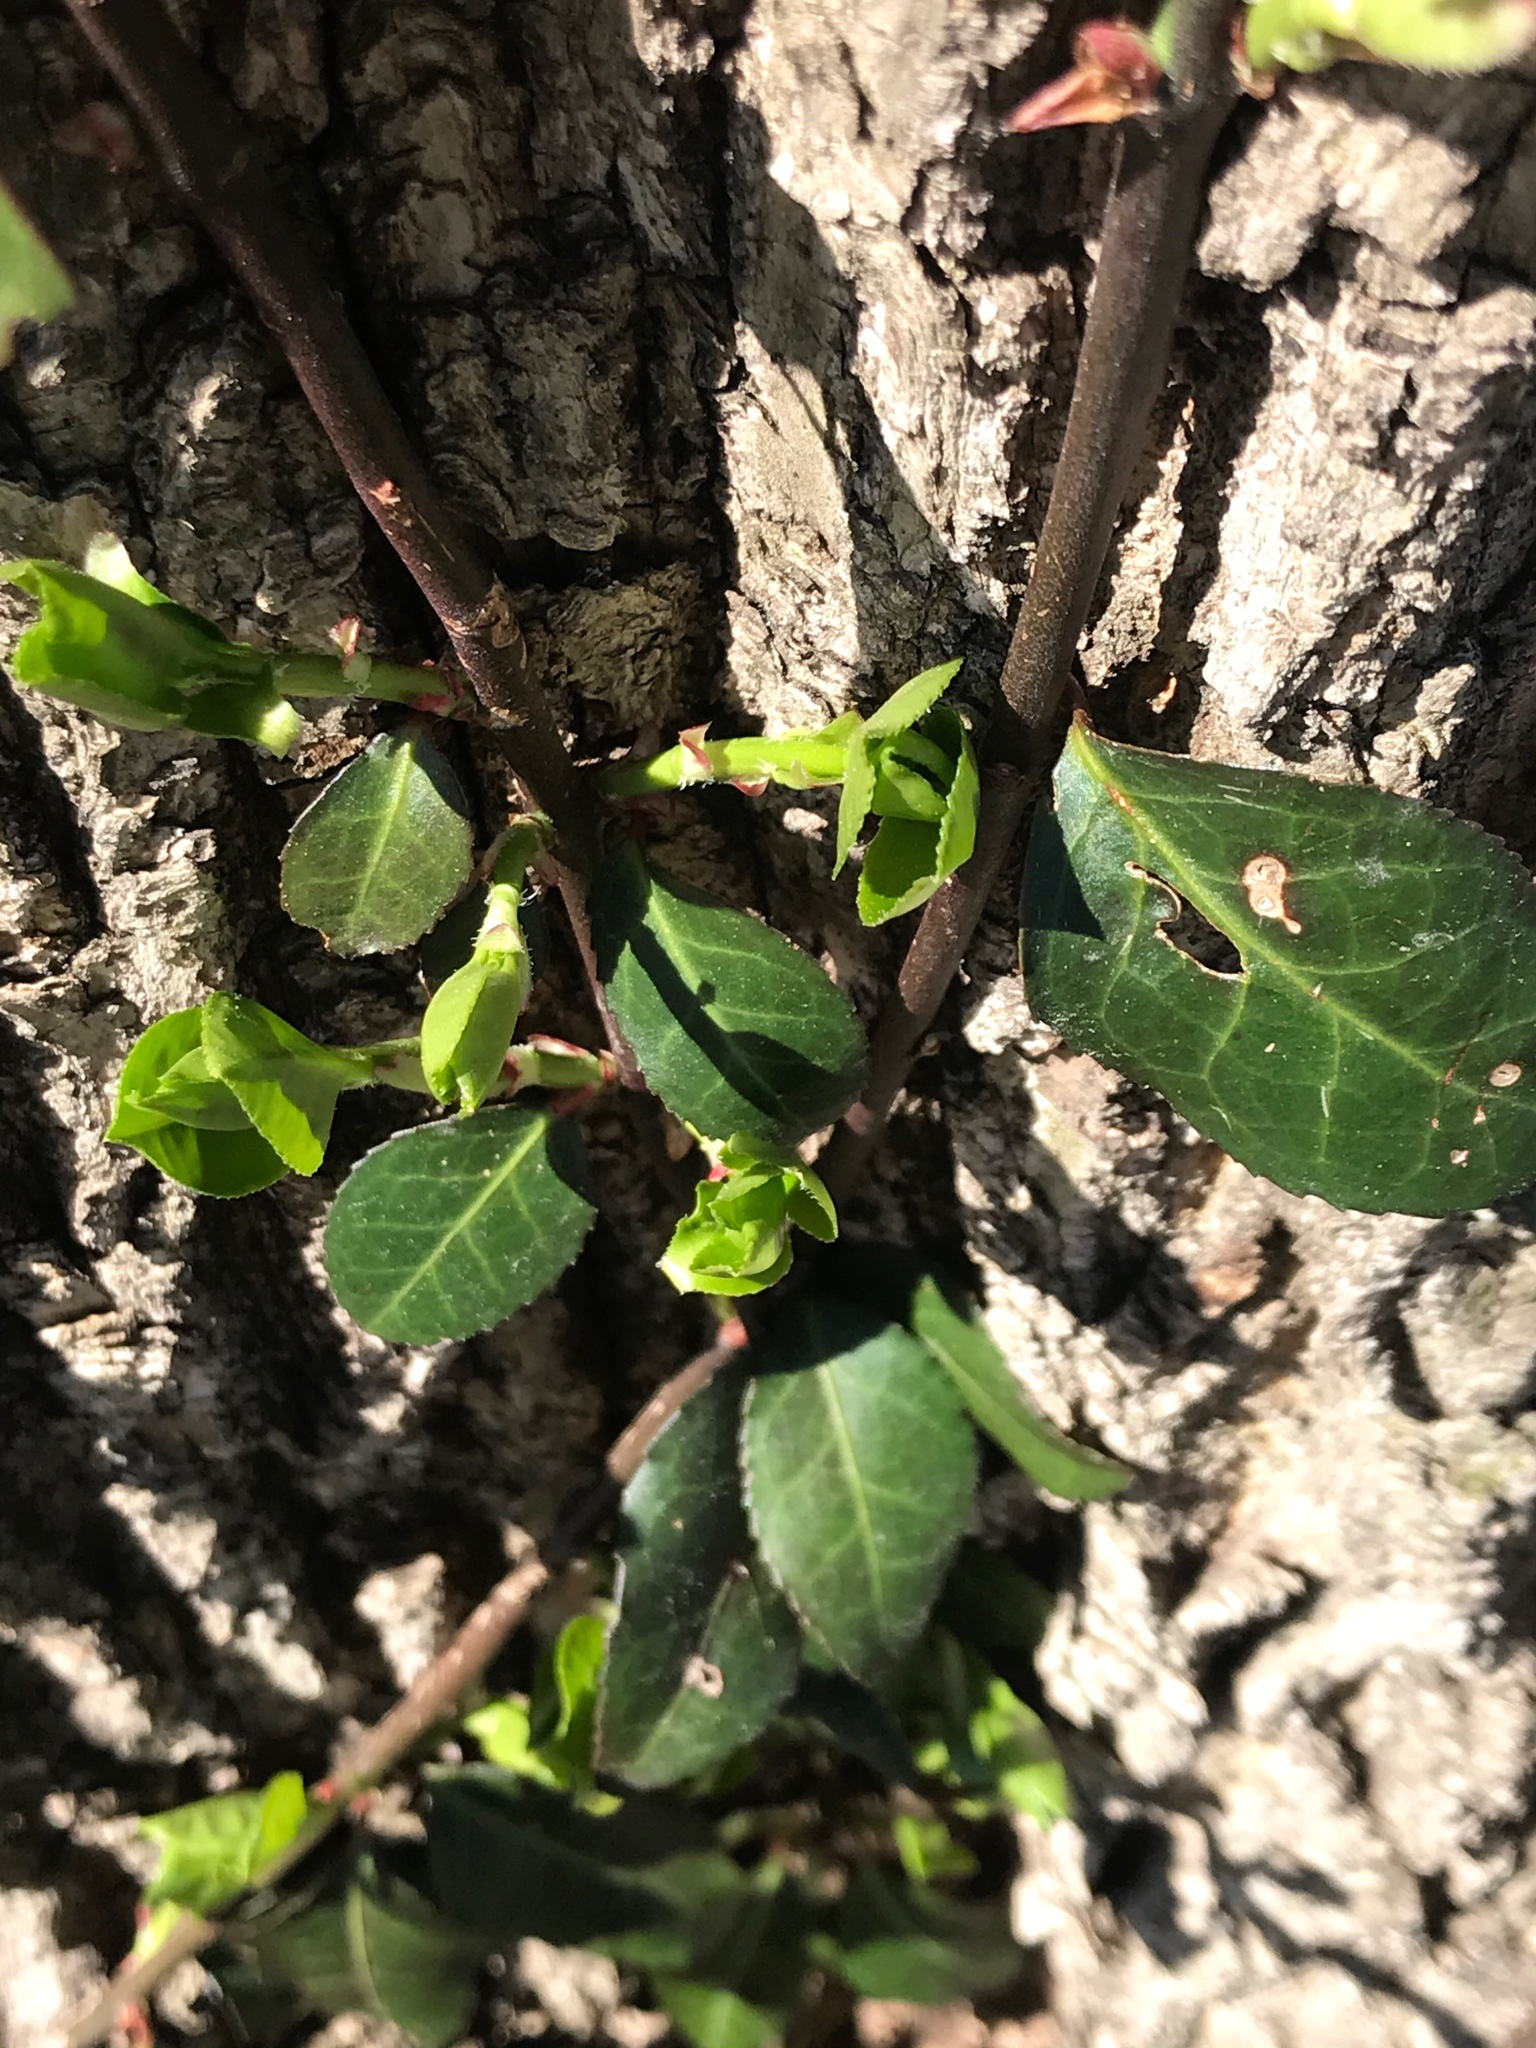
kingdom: Plantae
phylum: Tracheophyta
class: Magnoliopsida
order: Celastrales
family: Celastraceae
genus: Euonymus
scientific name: Euonymus fortunei
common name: Climbing euonymus
